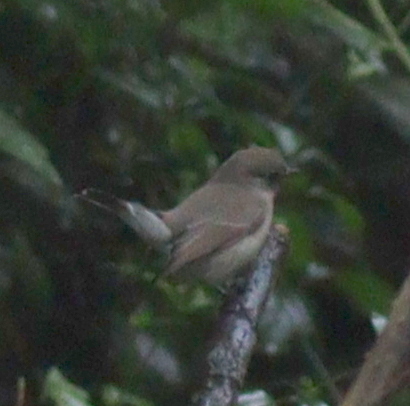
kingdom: Animalia
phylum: Chordata
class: Aves
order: Passeriformes
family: Muscicapidae
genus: Ficedula
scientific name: Ficedula albicilla
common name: Taiga flycatcher
